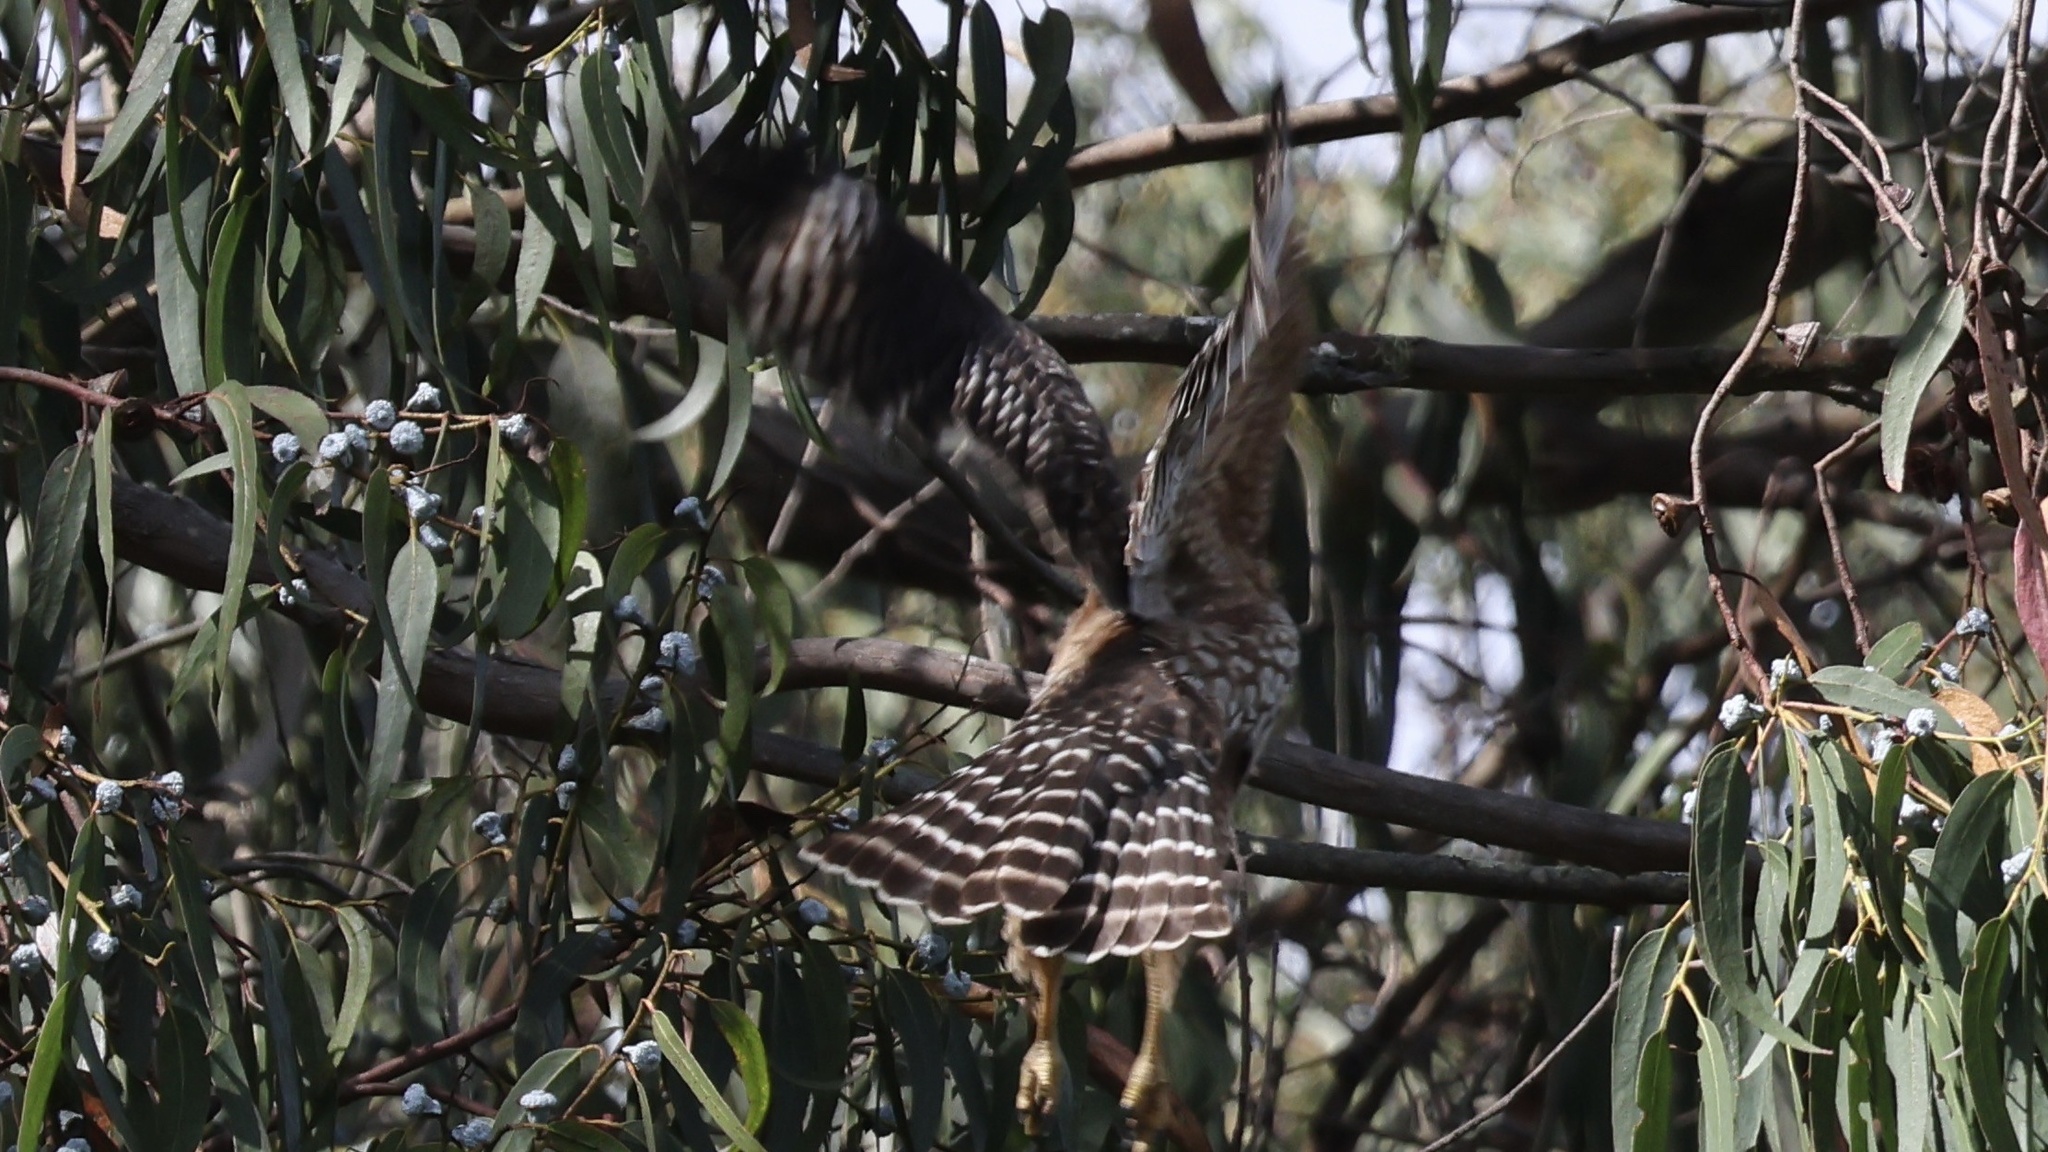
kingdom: Animalia
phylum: Chordata
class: Aves
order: Accipitriformes
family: Accipitridae
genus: Buteo
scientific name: Buteo lineatus
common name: Red-shouldered hawk
